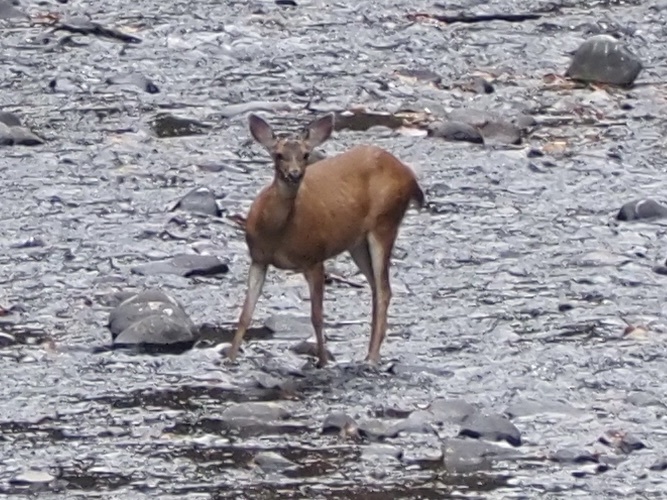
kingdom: Animalia
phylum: Chordata
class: Mammalia
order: Artiodactyla
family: Cervidae
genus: Odocoileus
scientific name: Odocoileus hemionus
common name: Mule deer
